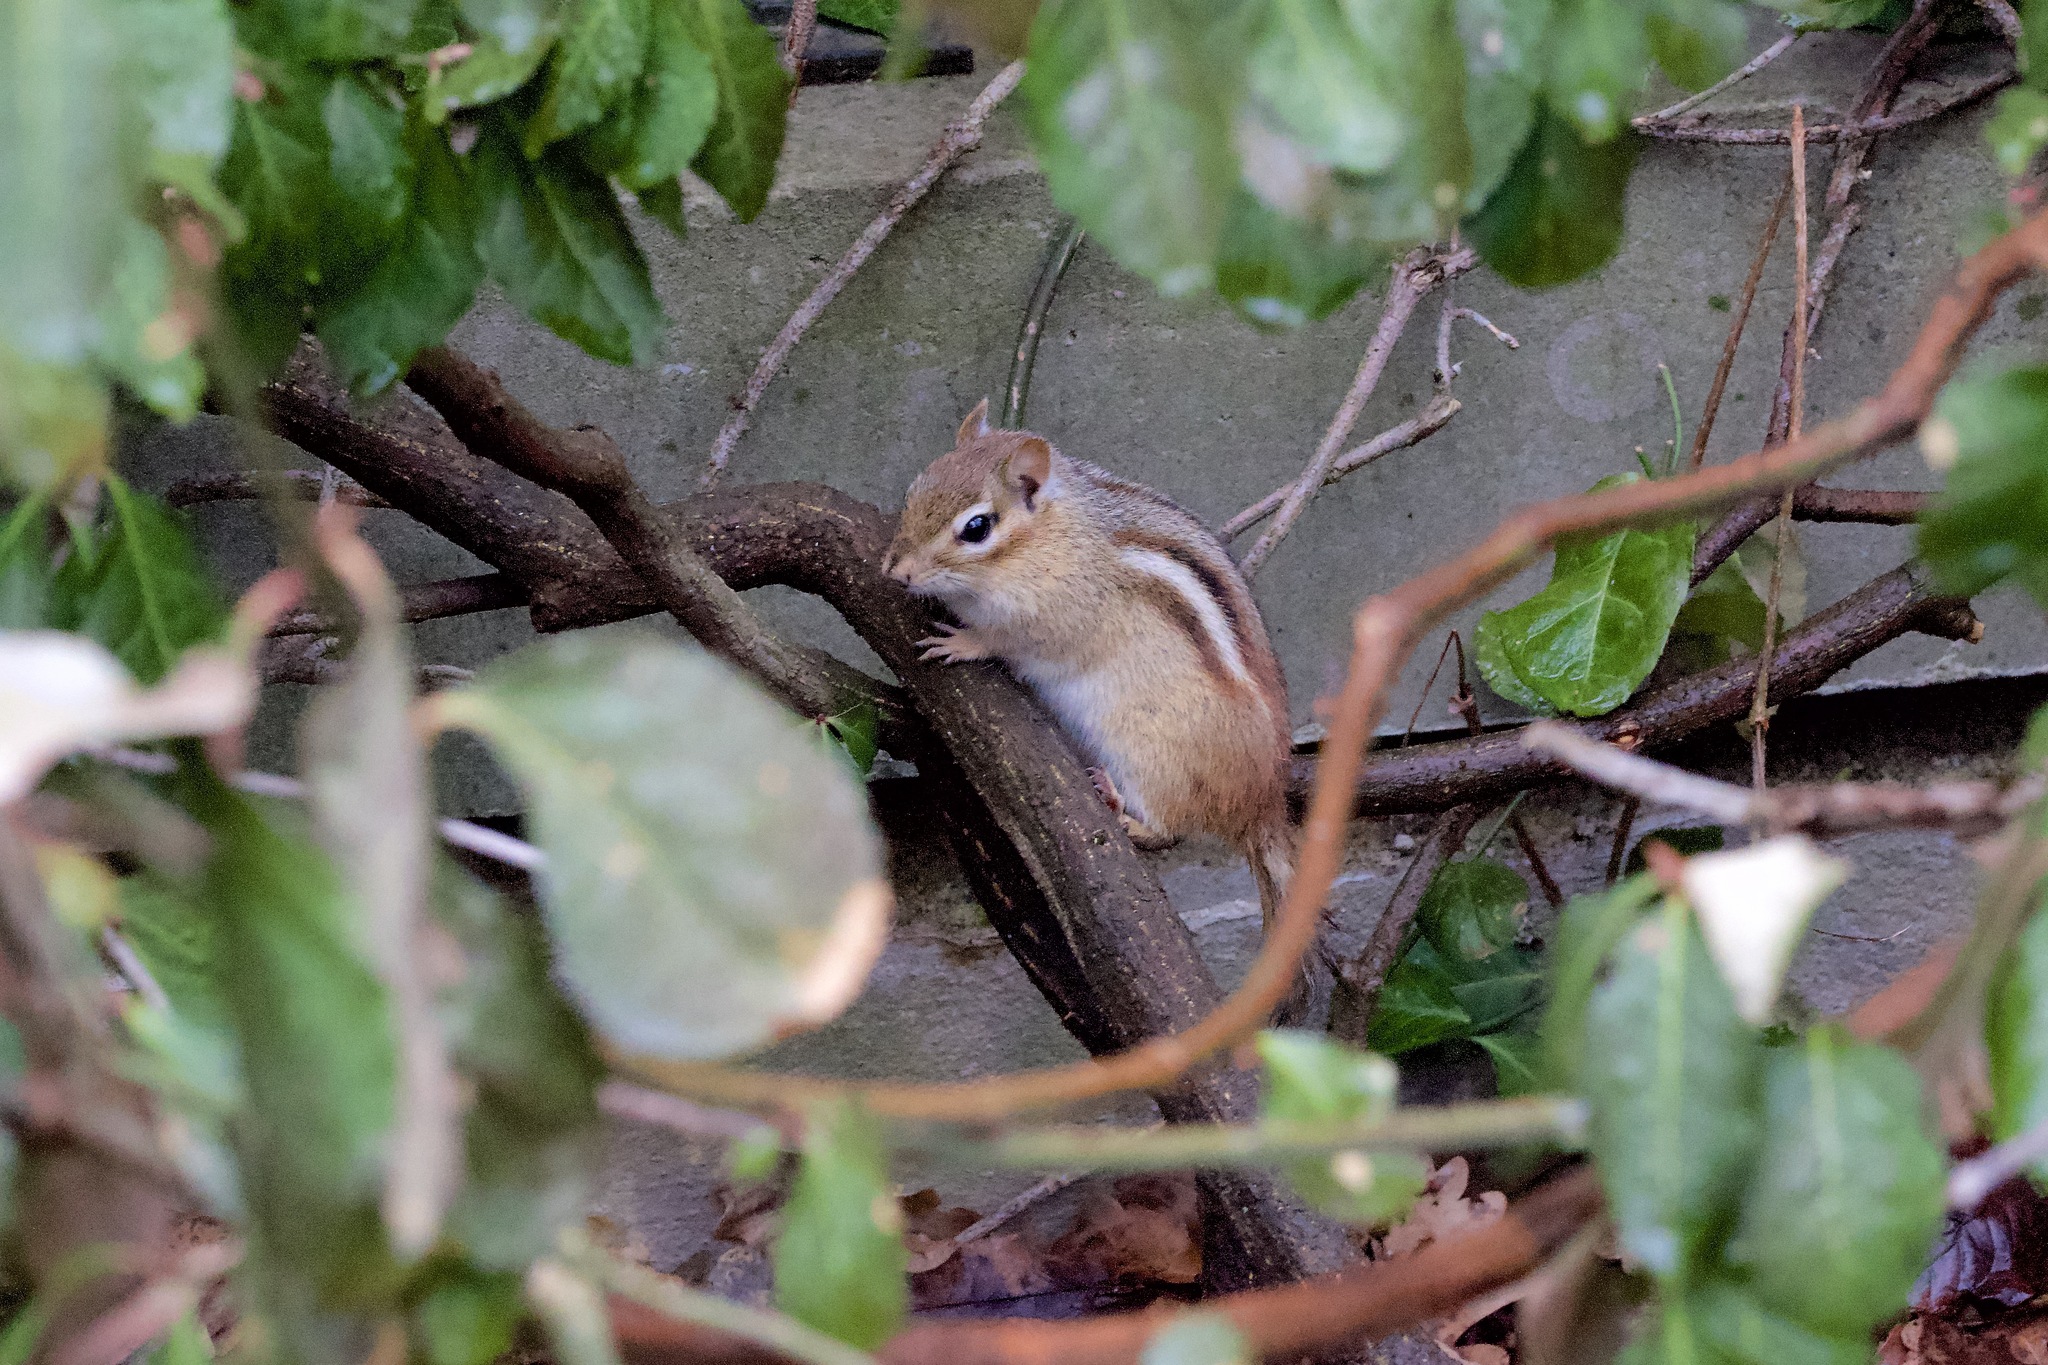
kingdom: Animalia
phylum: Chordata
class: Mammalia
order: Rodentia
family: Sciuridae
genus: Tamias
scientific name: Tamias striatus
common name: Eastern chipmunk
